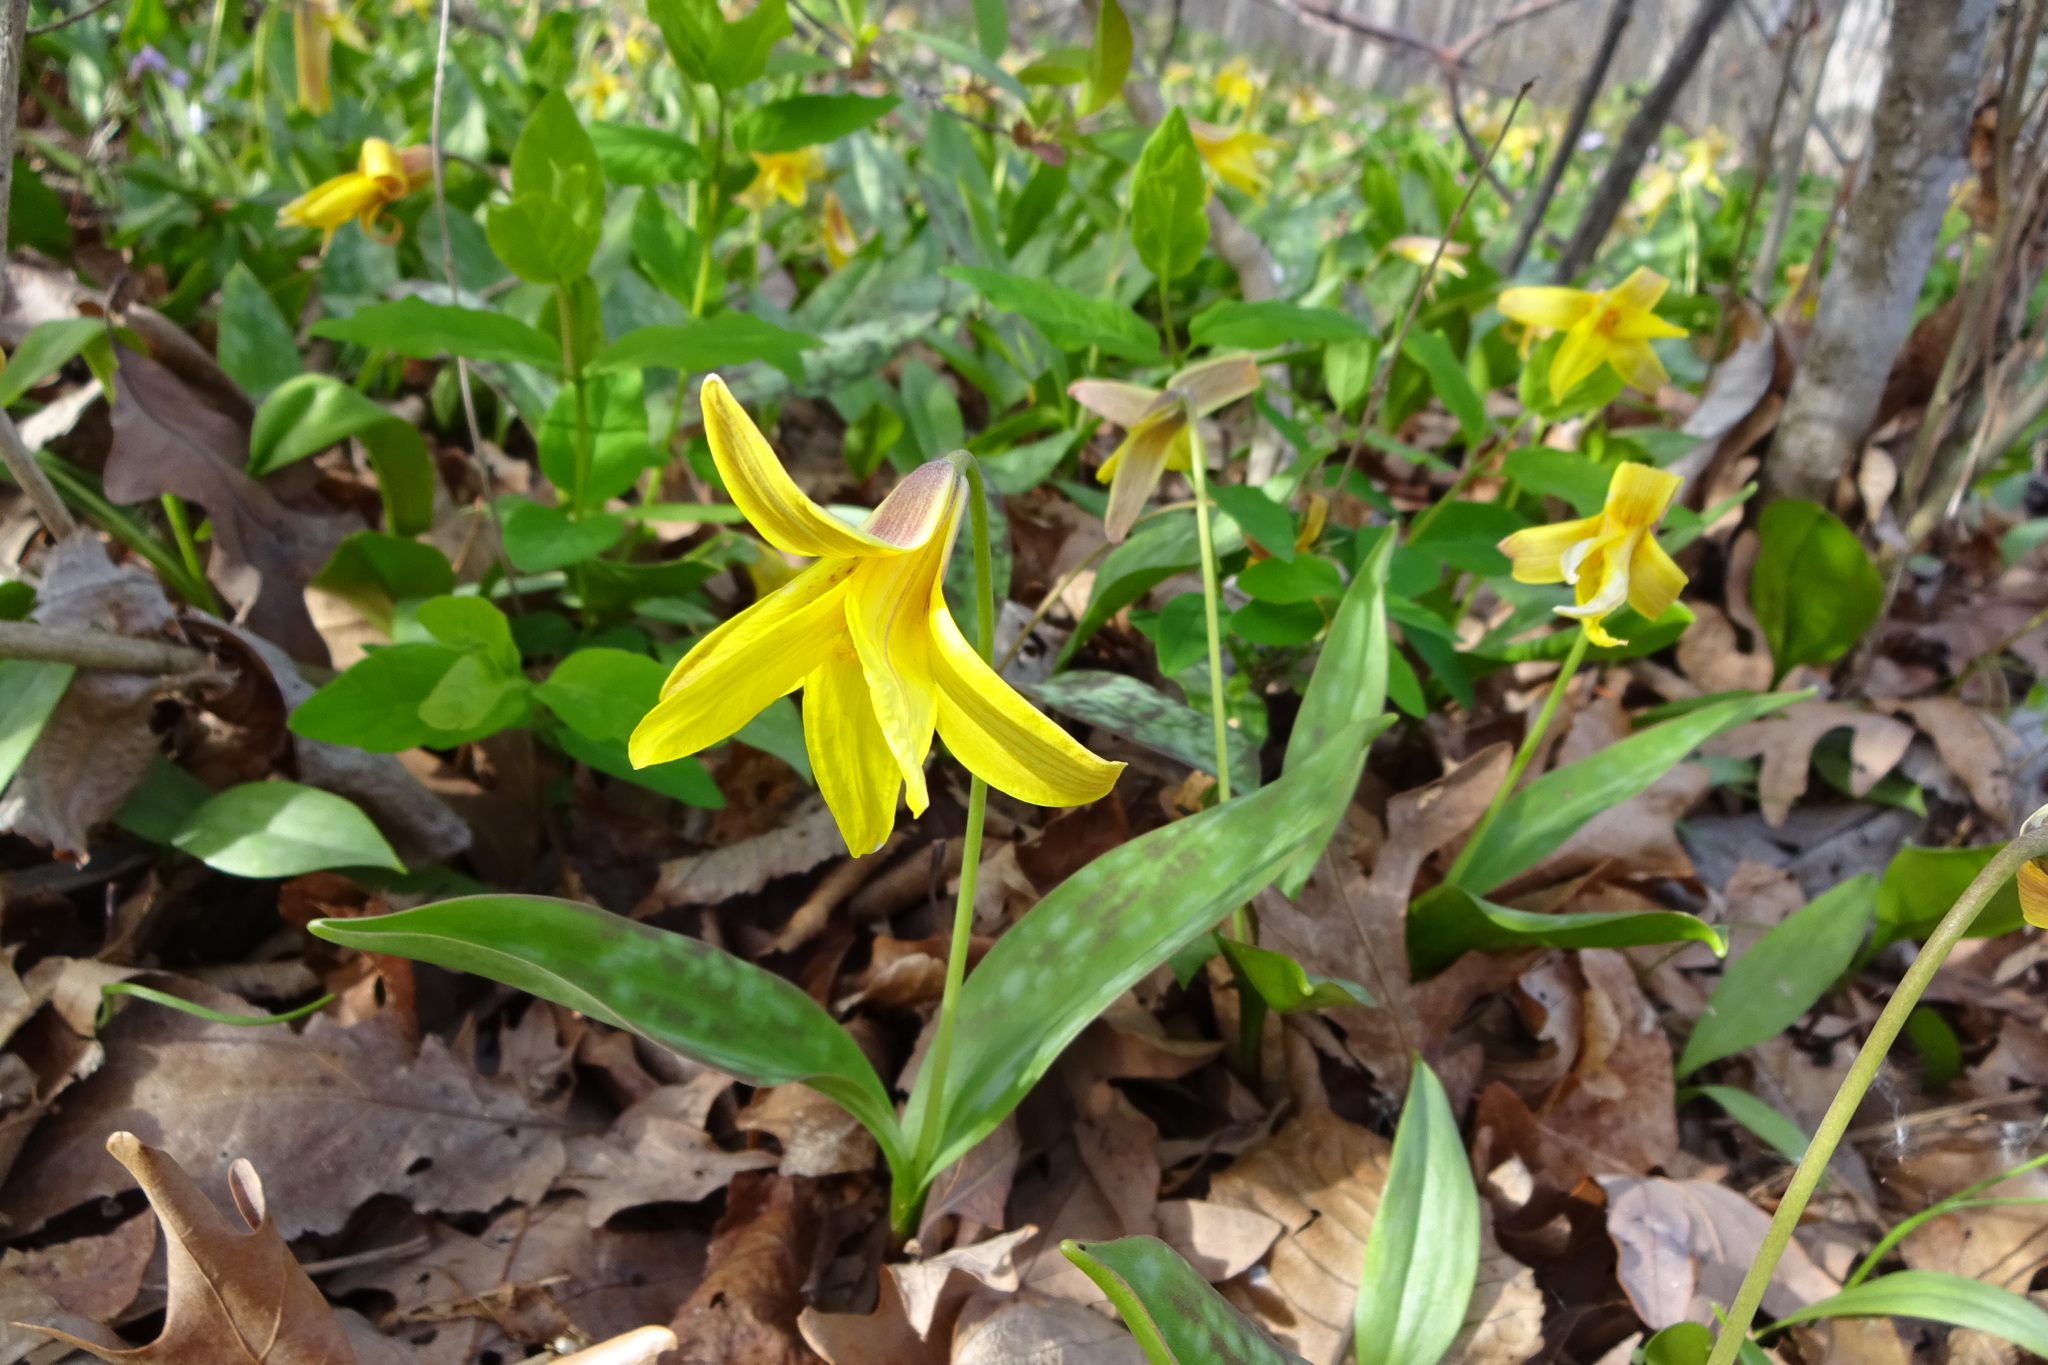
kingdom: Plantae
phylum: Tracheophyta
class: Liliopsida
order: Liliales
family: Liliaceae
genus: Erythronium
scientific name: Erythronium americanum
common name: Yellow adder's-tongue
